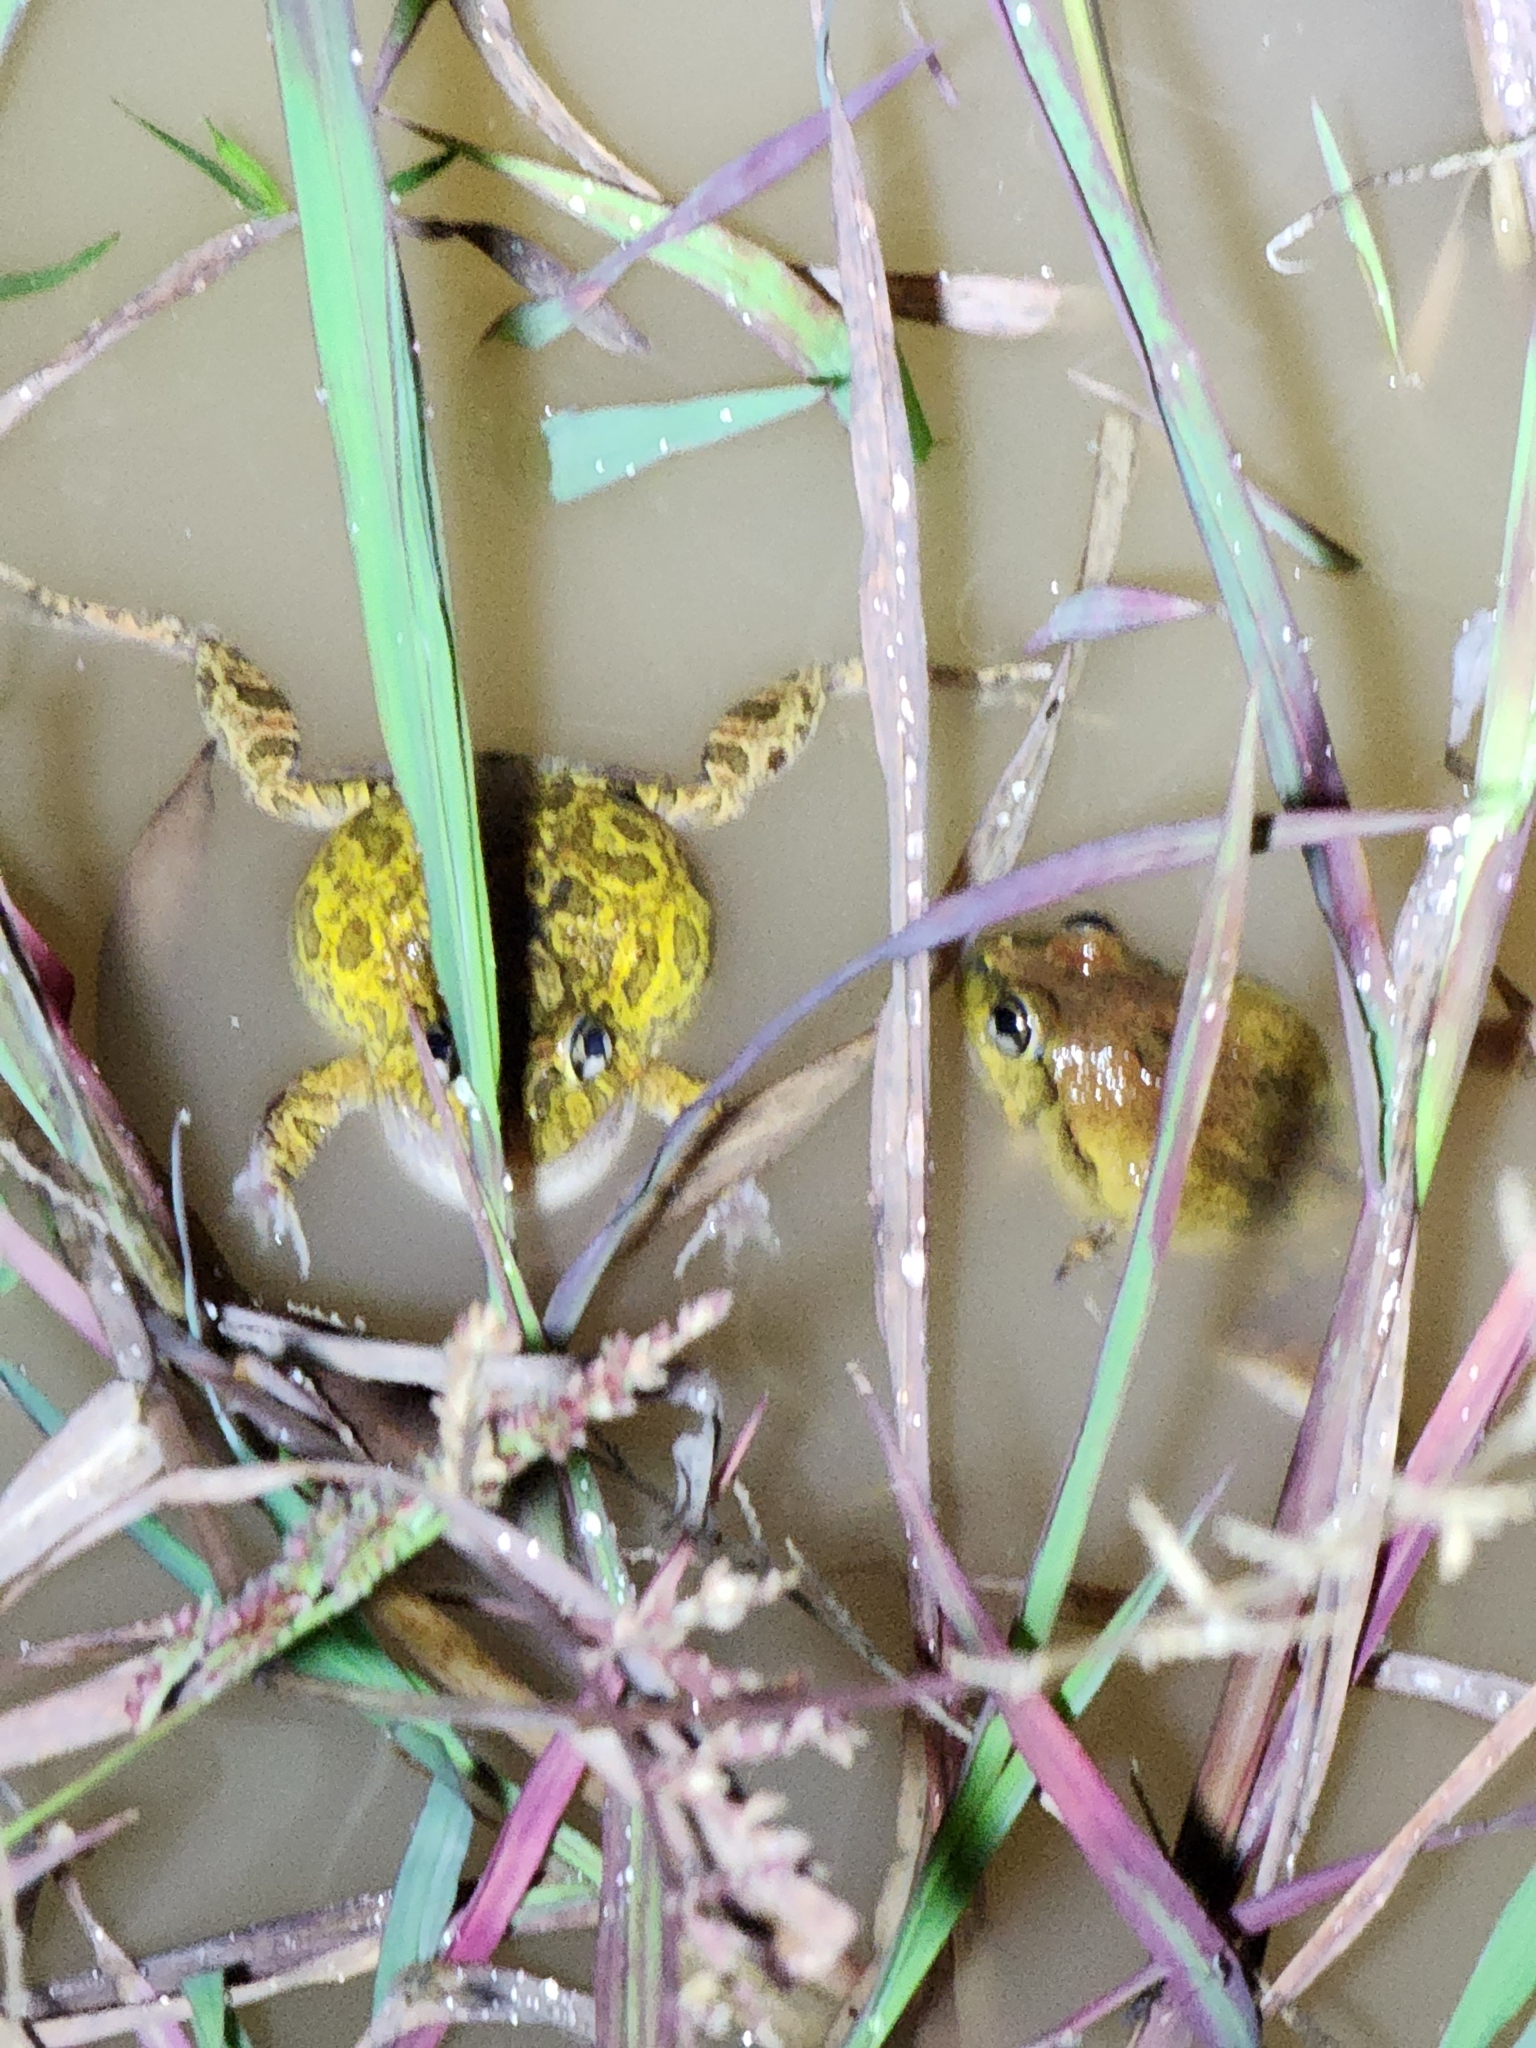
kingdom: Animalia
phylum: Chordata
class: Amphibia
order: Anura
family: Limnodynastidae
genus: Platyplectrum
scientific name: Platyplectrum ornatum
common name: Ornate burrowing frog
